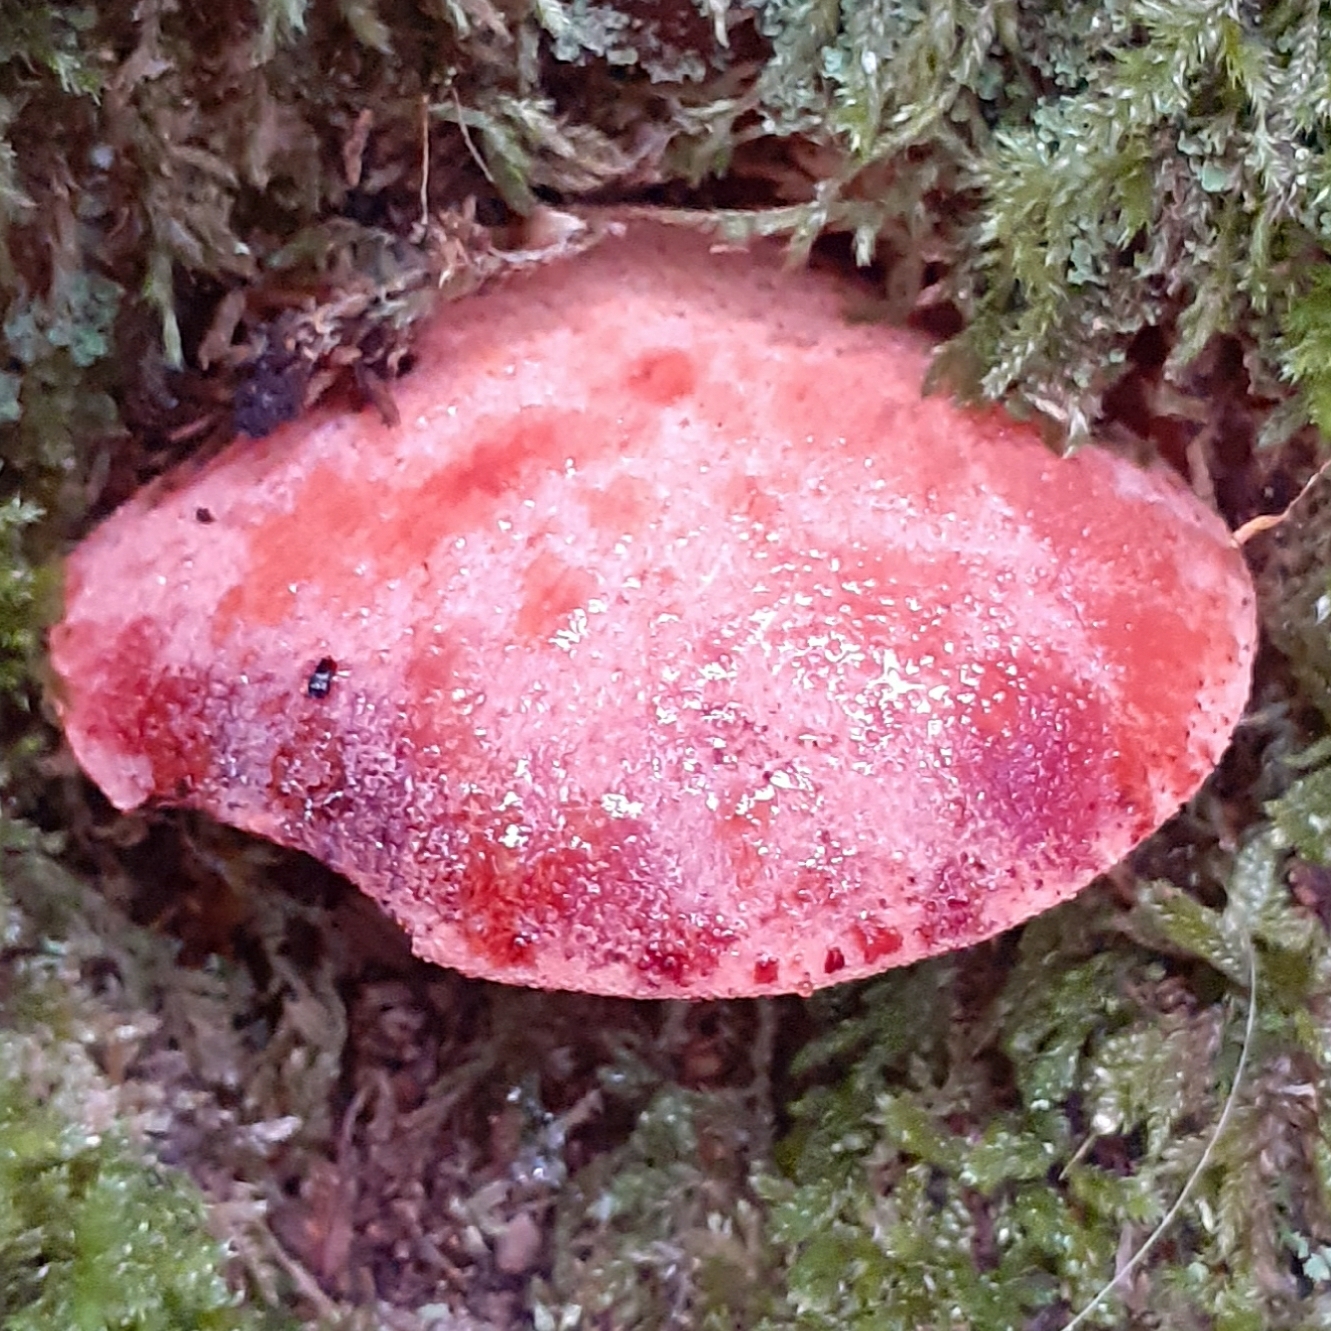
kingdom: Fungi
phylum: Basidiomycota
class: Agaricomycetes
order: Agaricales
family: Fistulinaceae
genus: Fistulina
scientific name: Fistulina hepatica
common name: Beef-steak fungus
